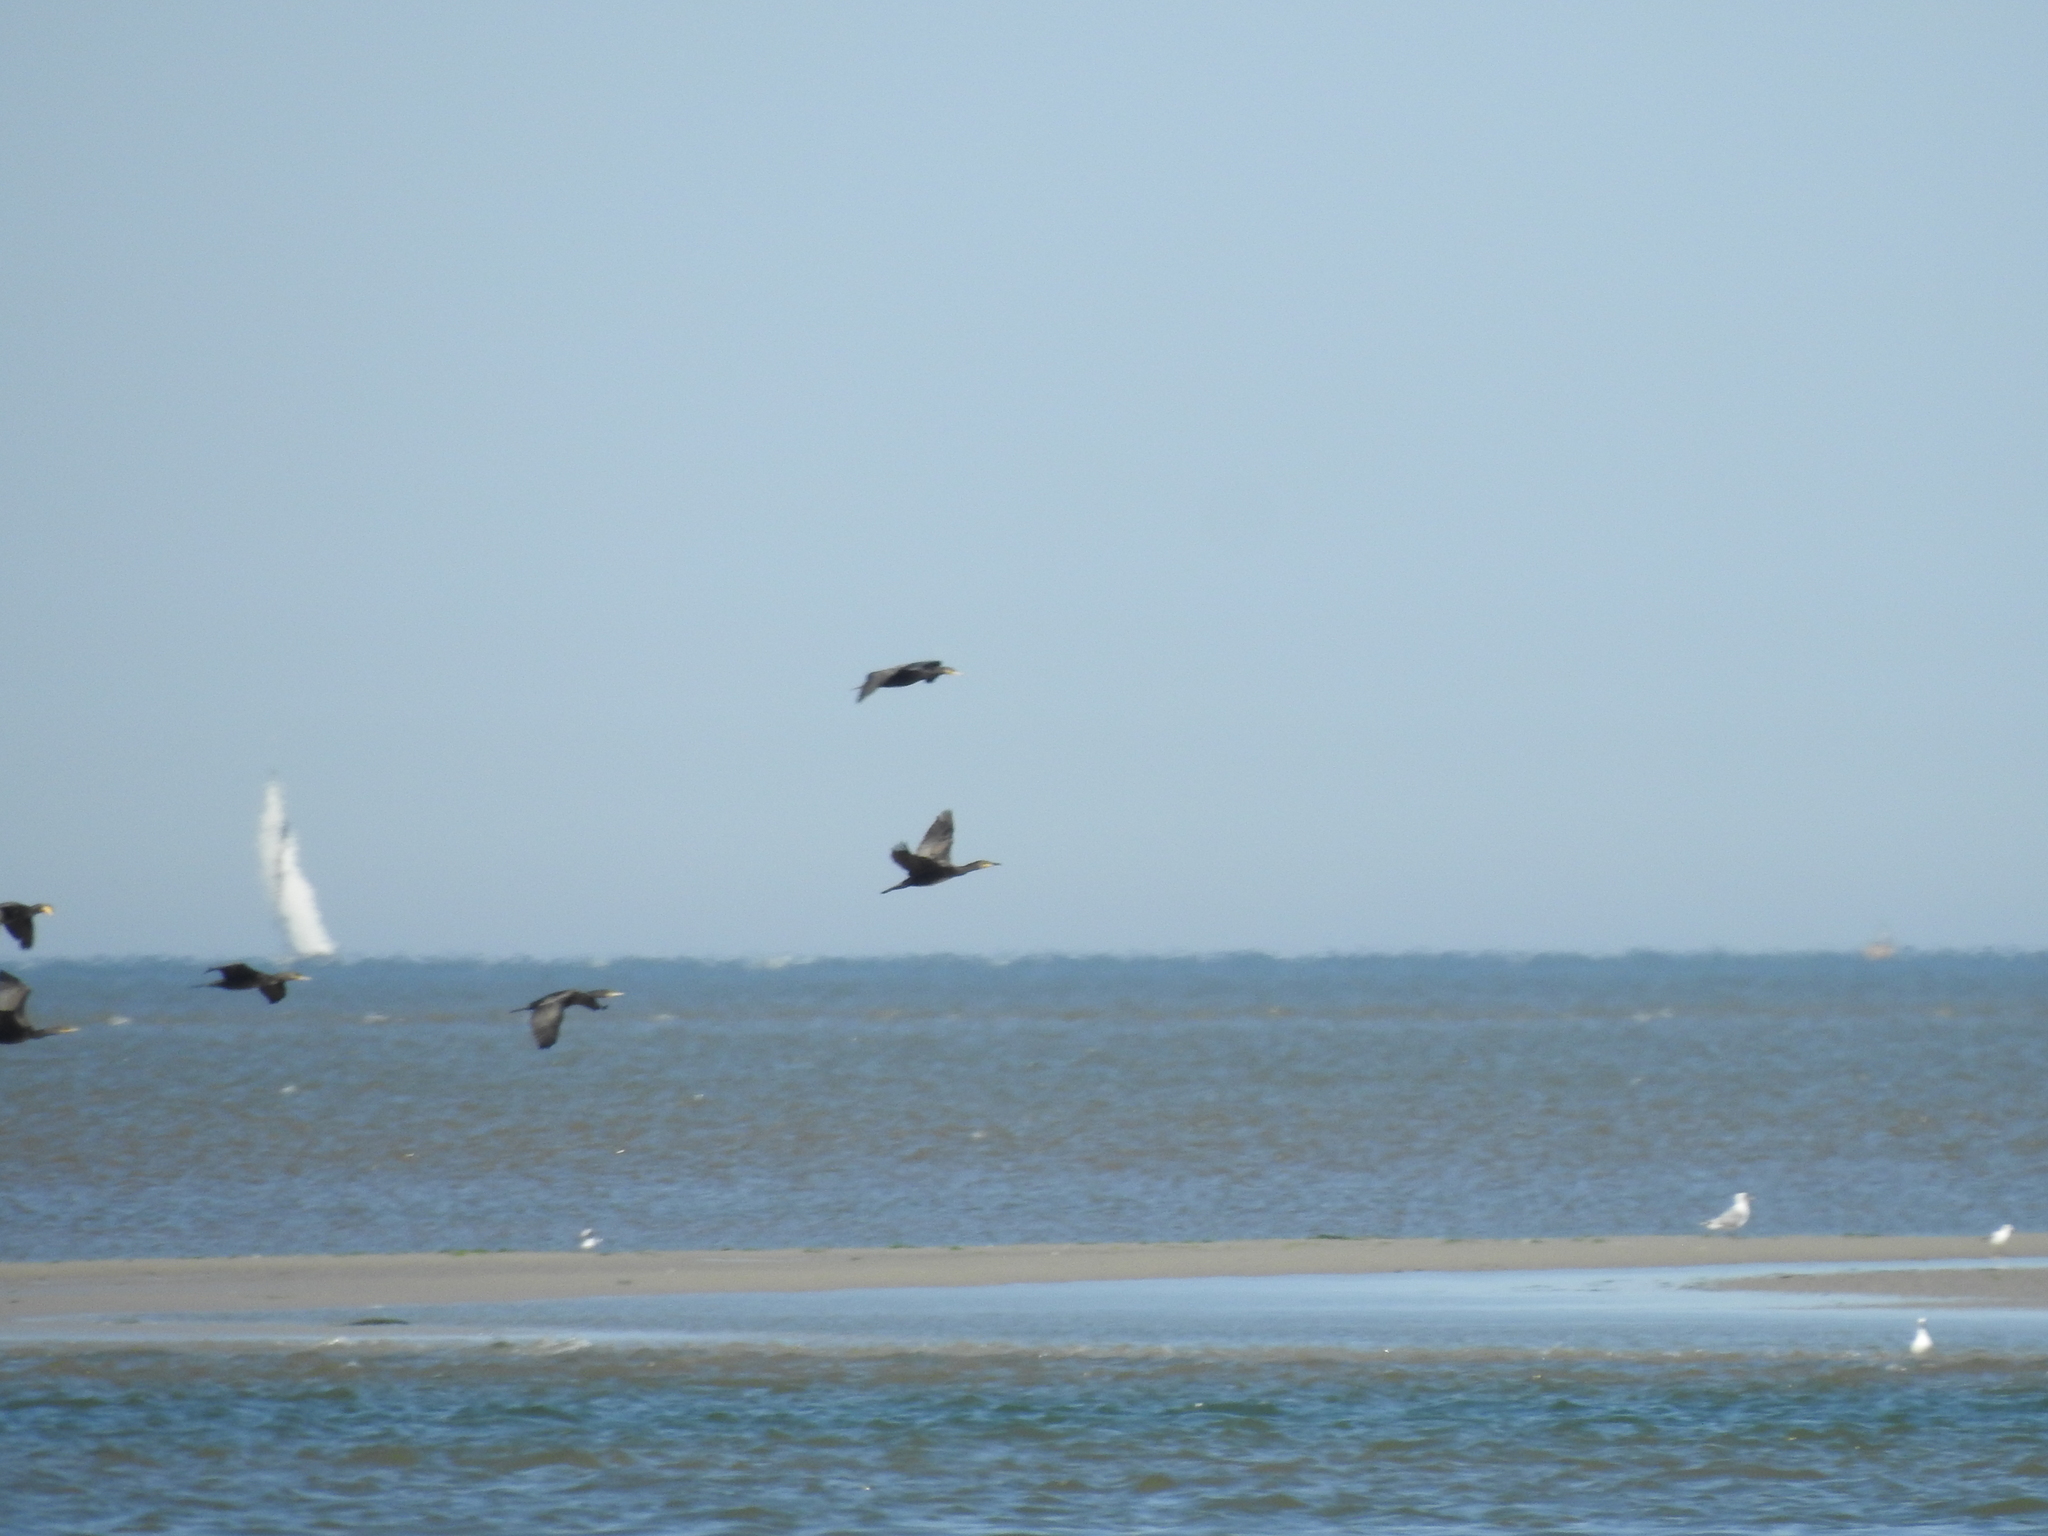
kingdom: Animalia
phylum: Chordata
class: Aves
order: Suliformes
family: Phalacrocoracidae
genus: Phalacrocorax
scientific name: Phalacrocorax carbo
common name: Great cormorant
